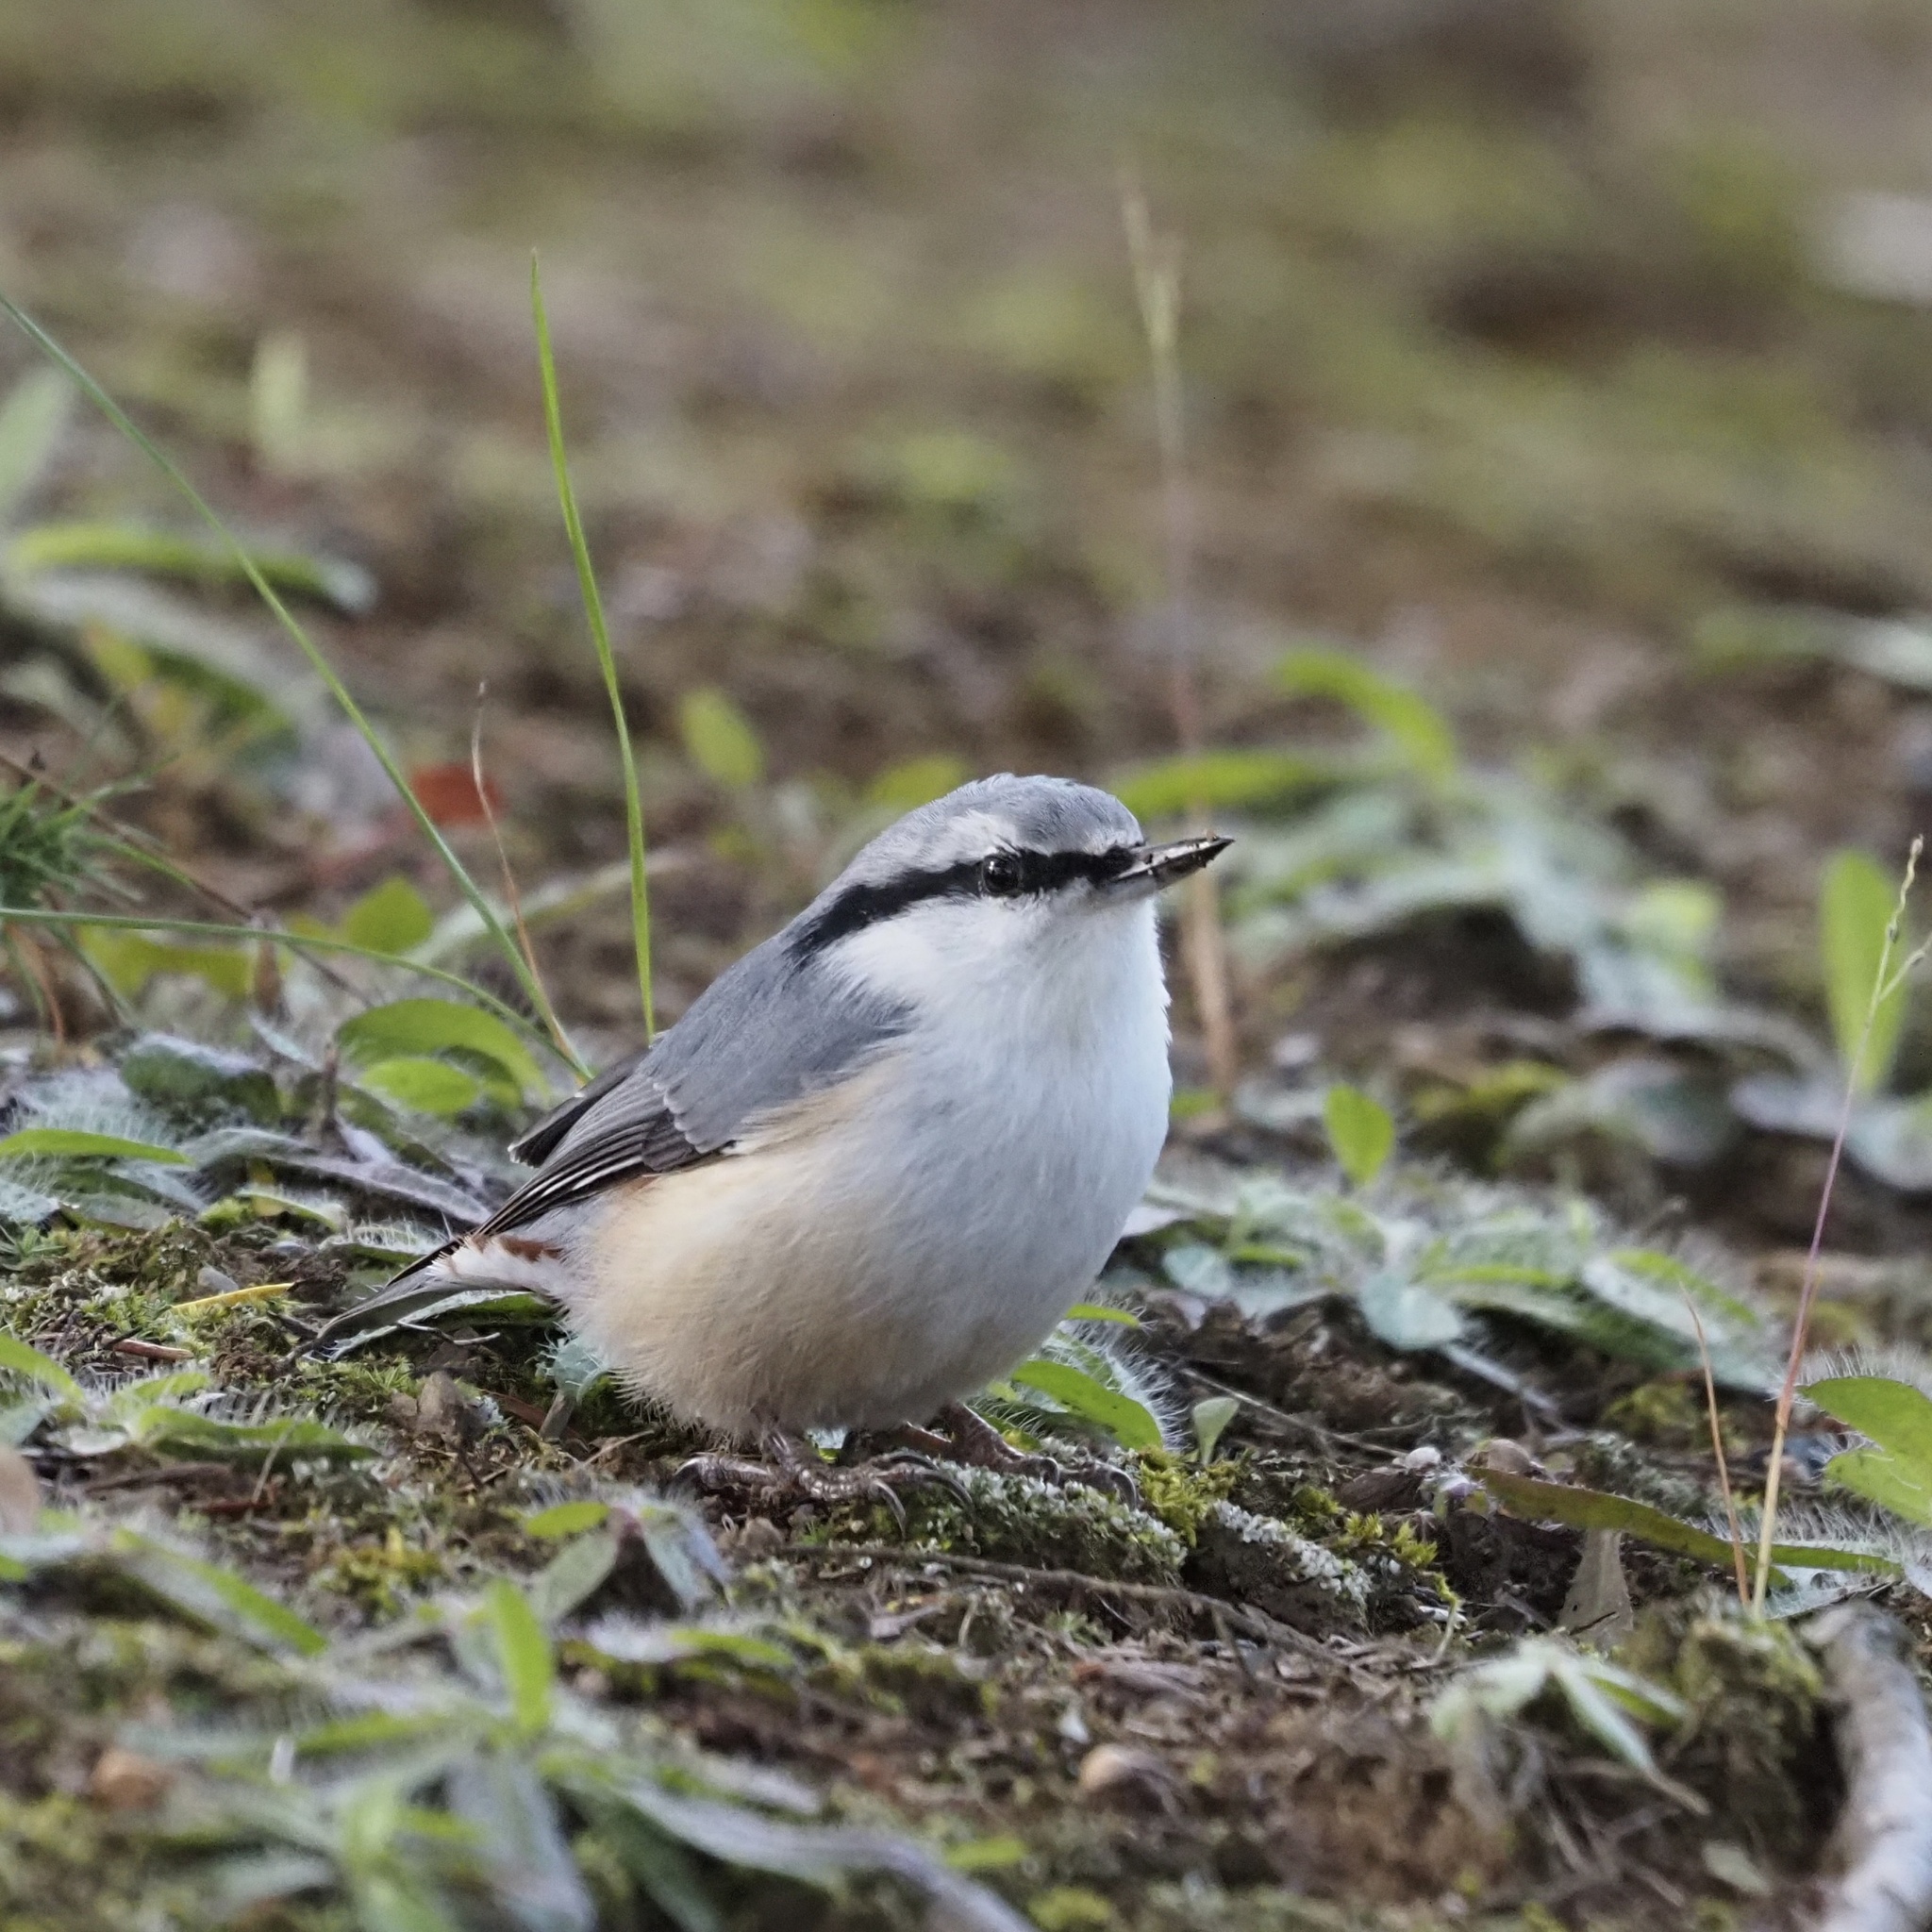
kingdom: Animalia
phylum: Chordata
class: Aves
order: Passeriformes
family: Sittidae
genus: Sitta
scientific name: Sitta europaea
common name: Eurasian nuthatch
